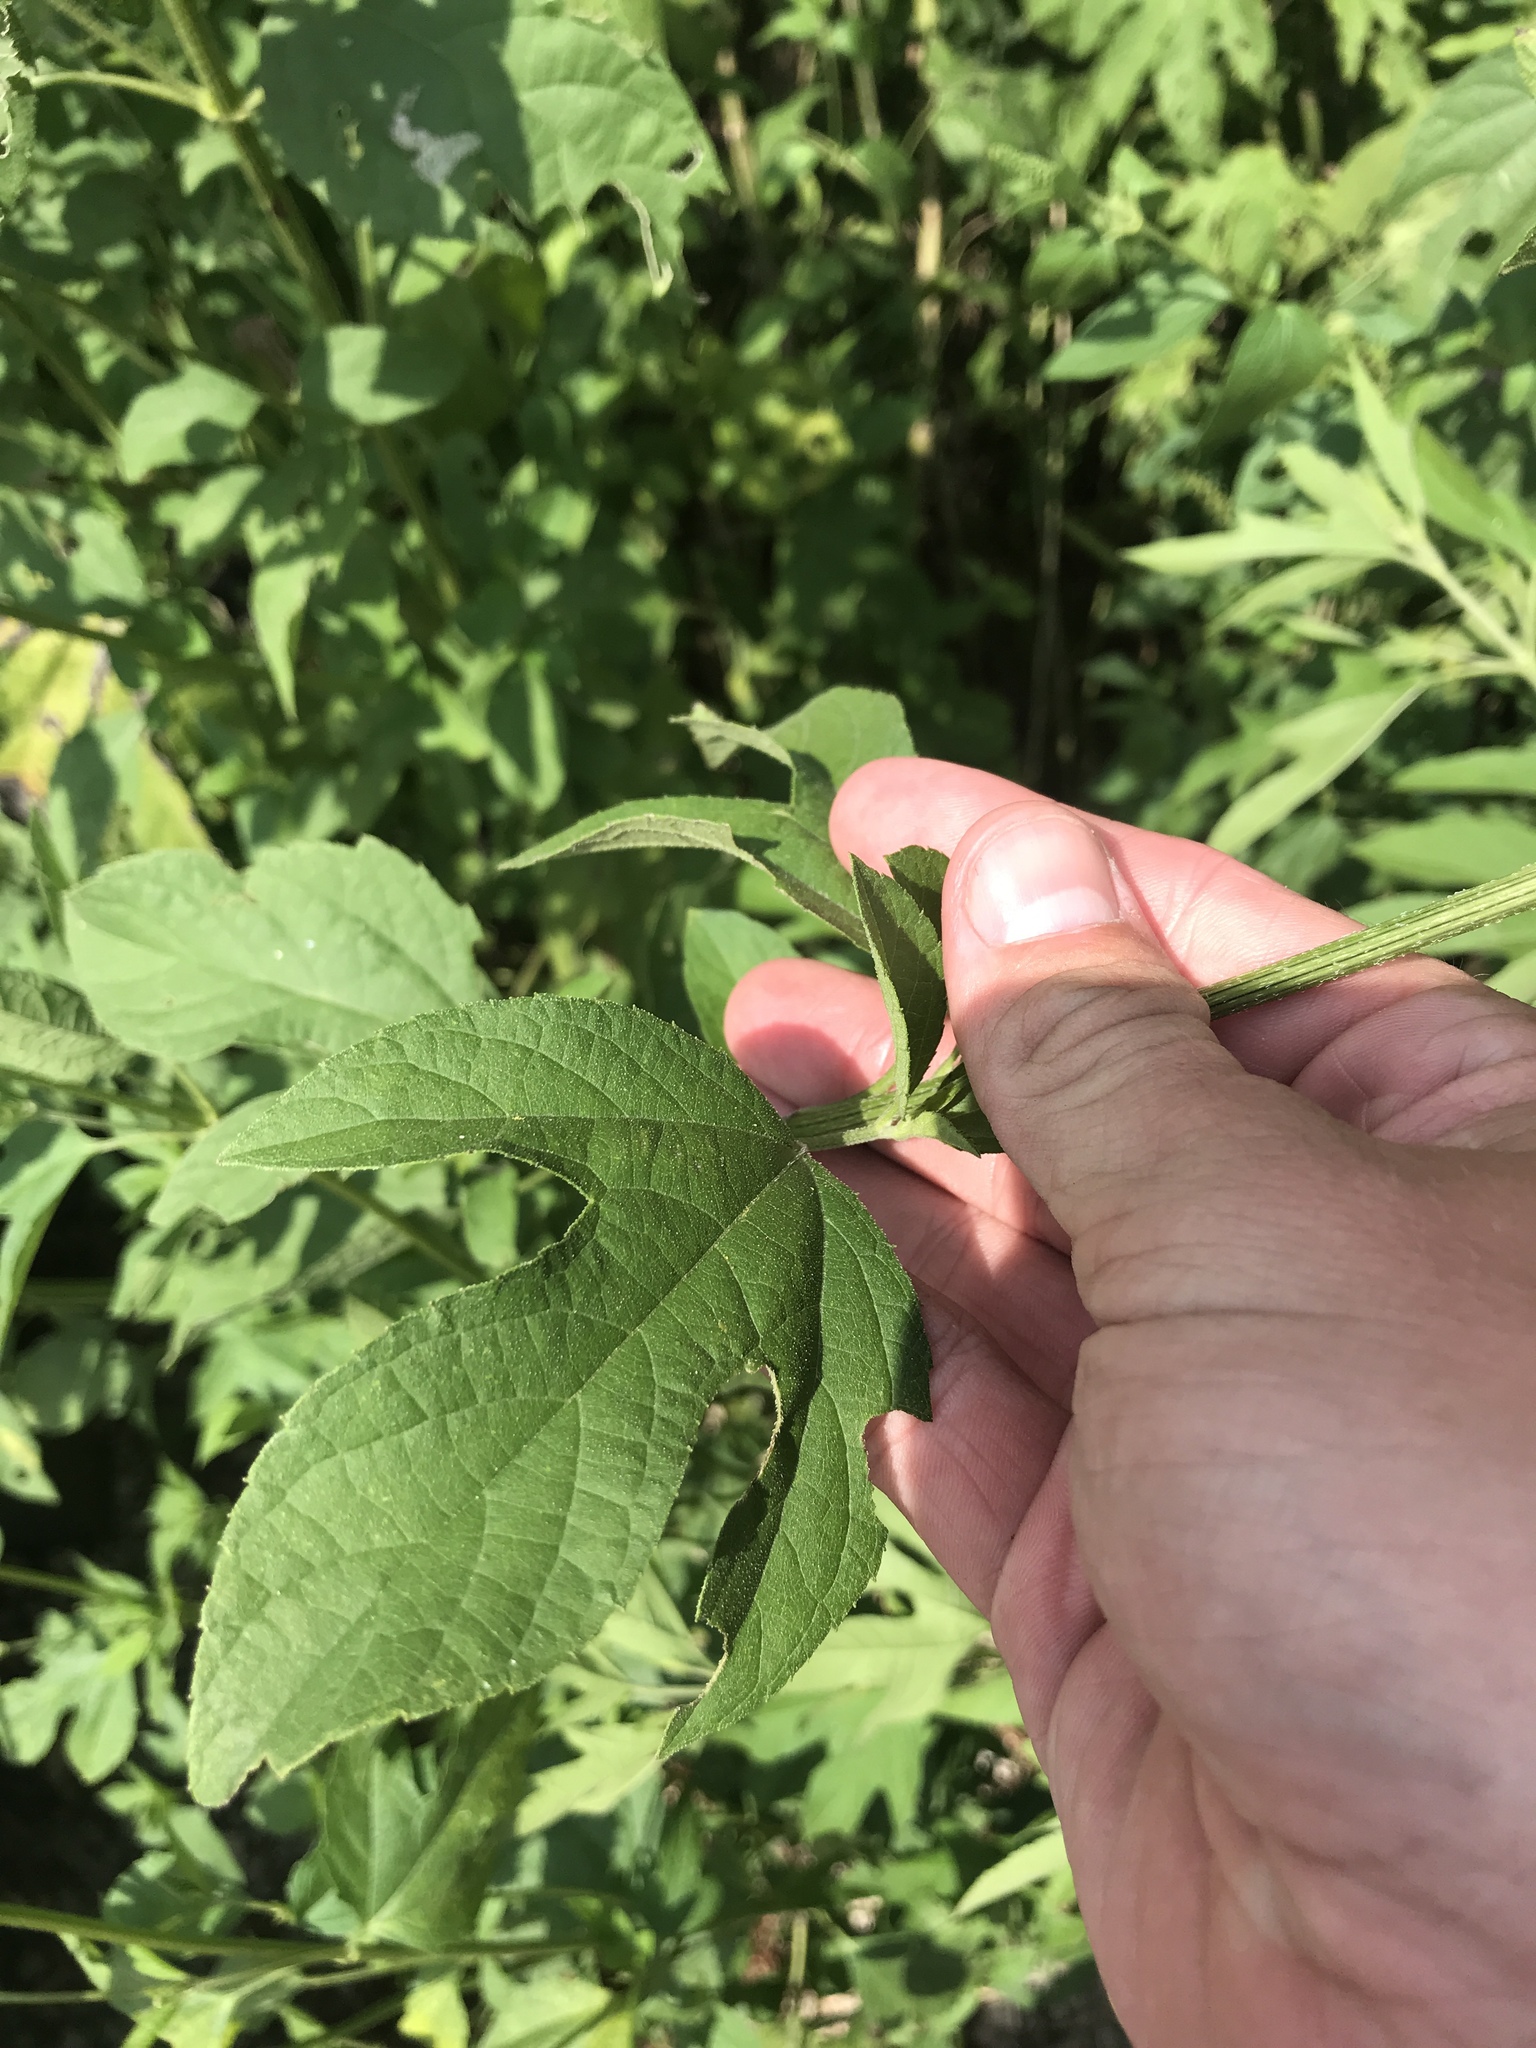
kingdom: Plantae
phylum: Tracheophyta
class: Magnoliopsida
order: Asterales
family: Asteraceae
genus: Ambrosia
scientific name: Ambrosia trifida
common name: Giant ragweed
